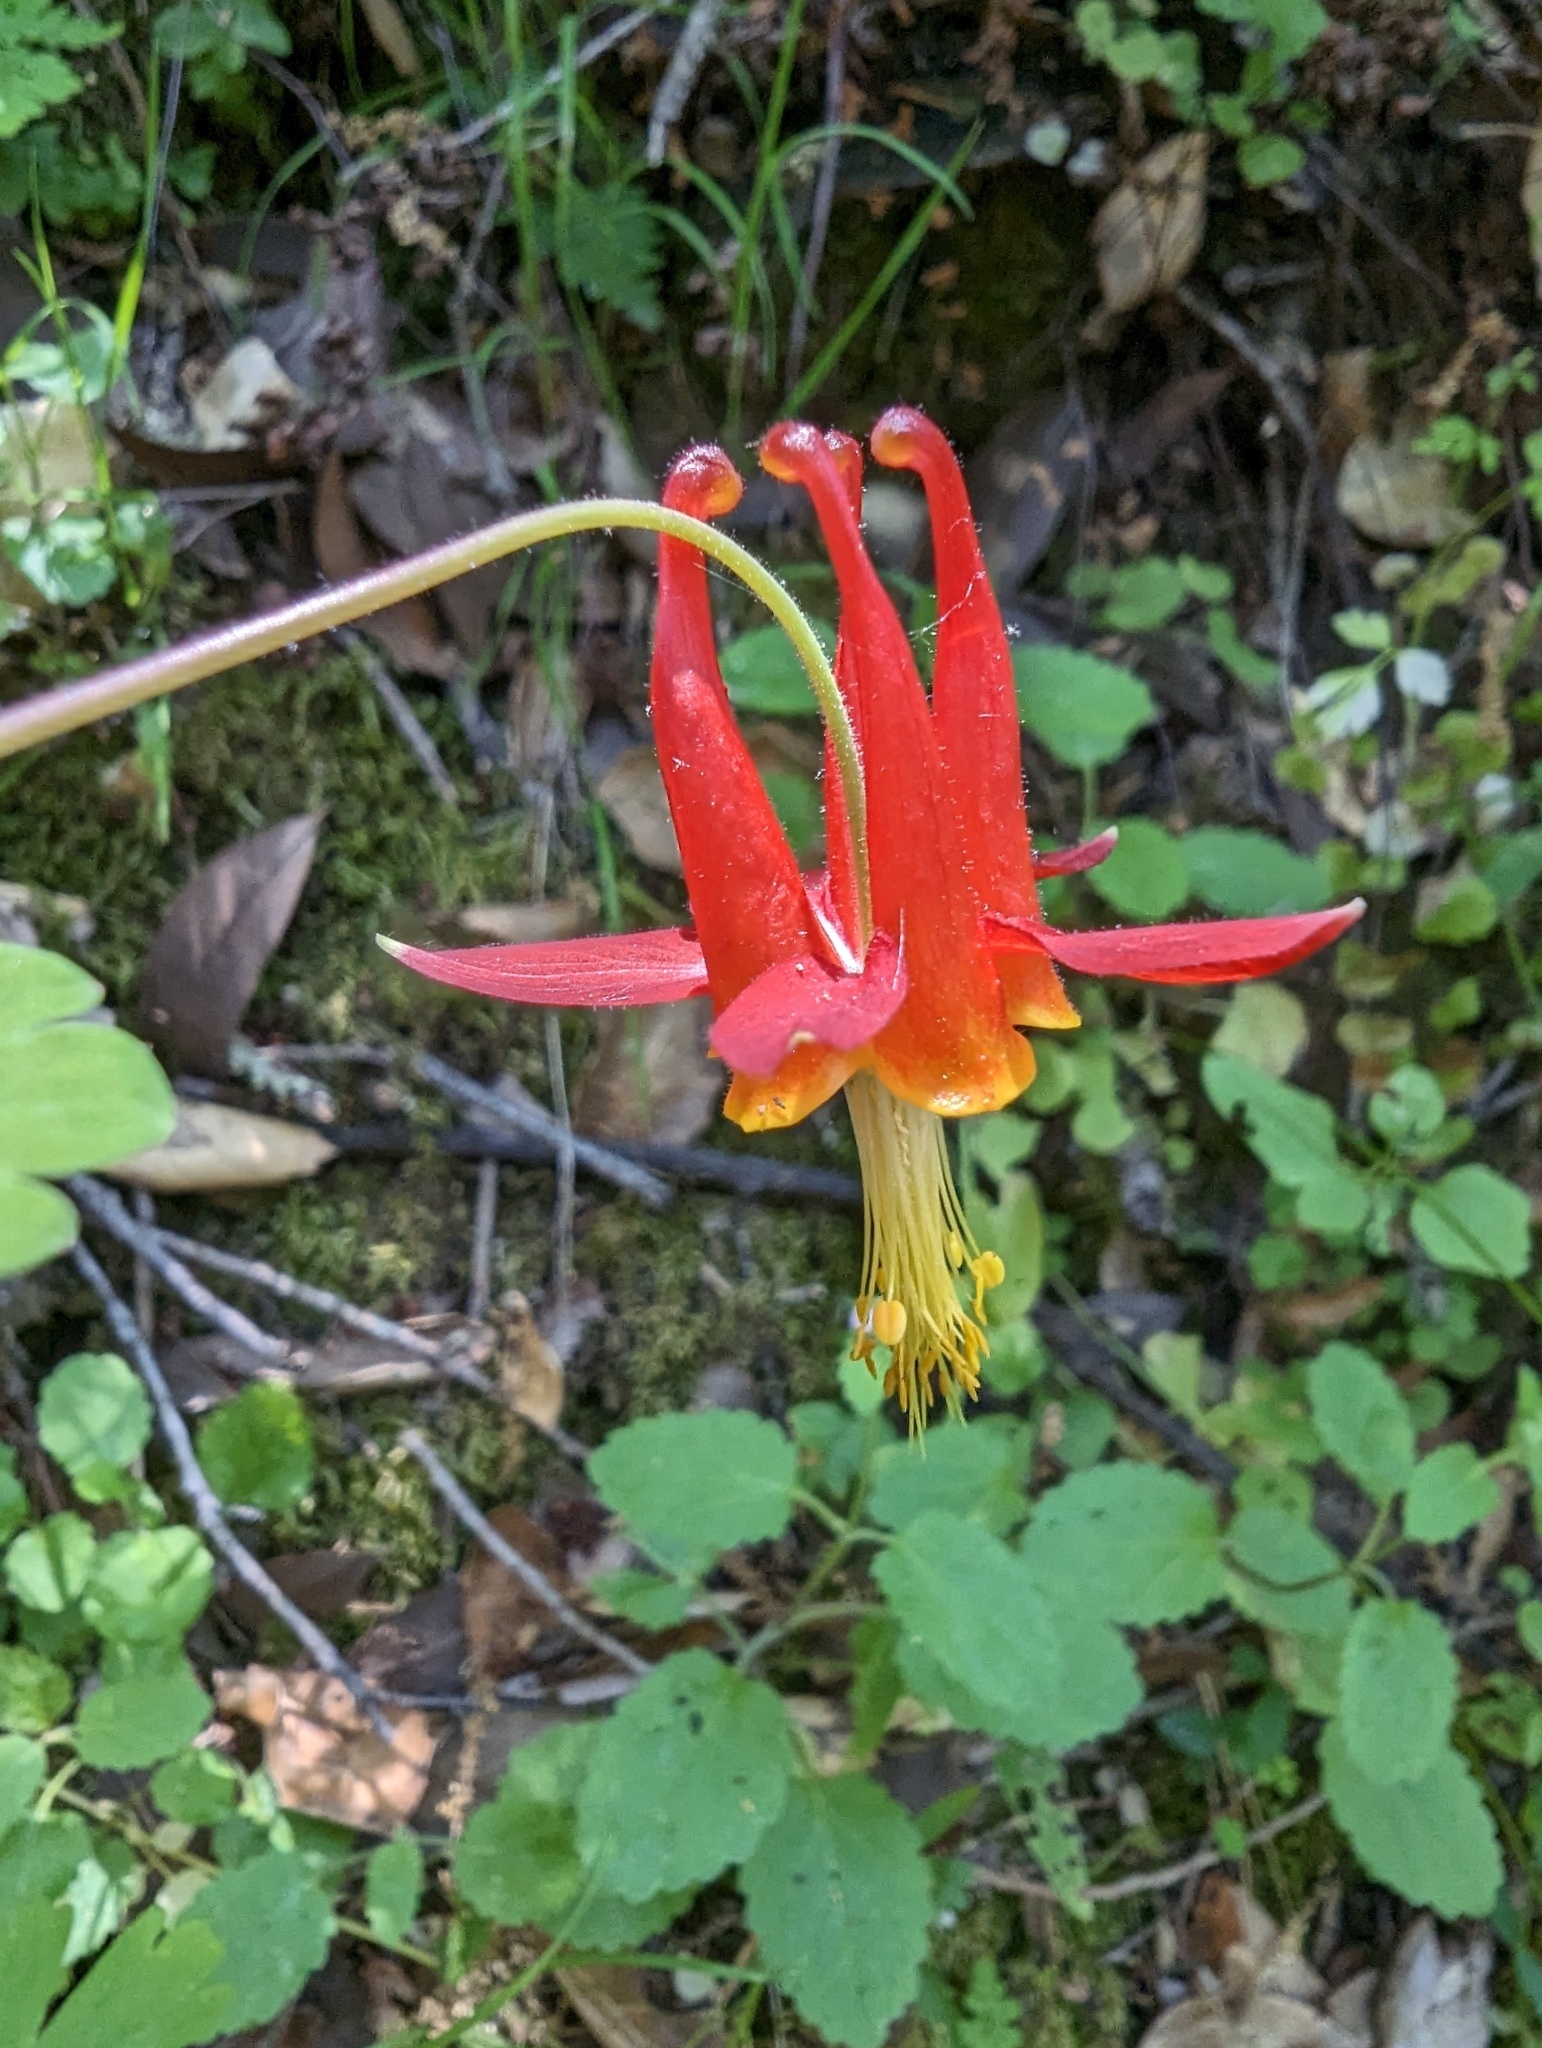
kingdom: Plantae
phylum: Tracheophyta
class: Magnoliopsida
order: Ranunculales
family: Ranunculaceae
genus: Aquilegia
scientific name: Aquilegia formosa
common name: Sitka columbine
